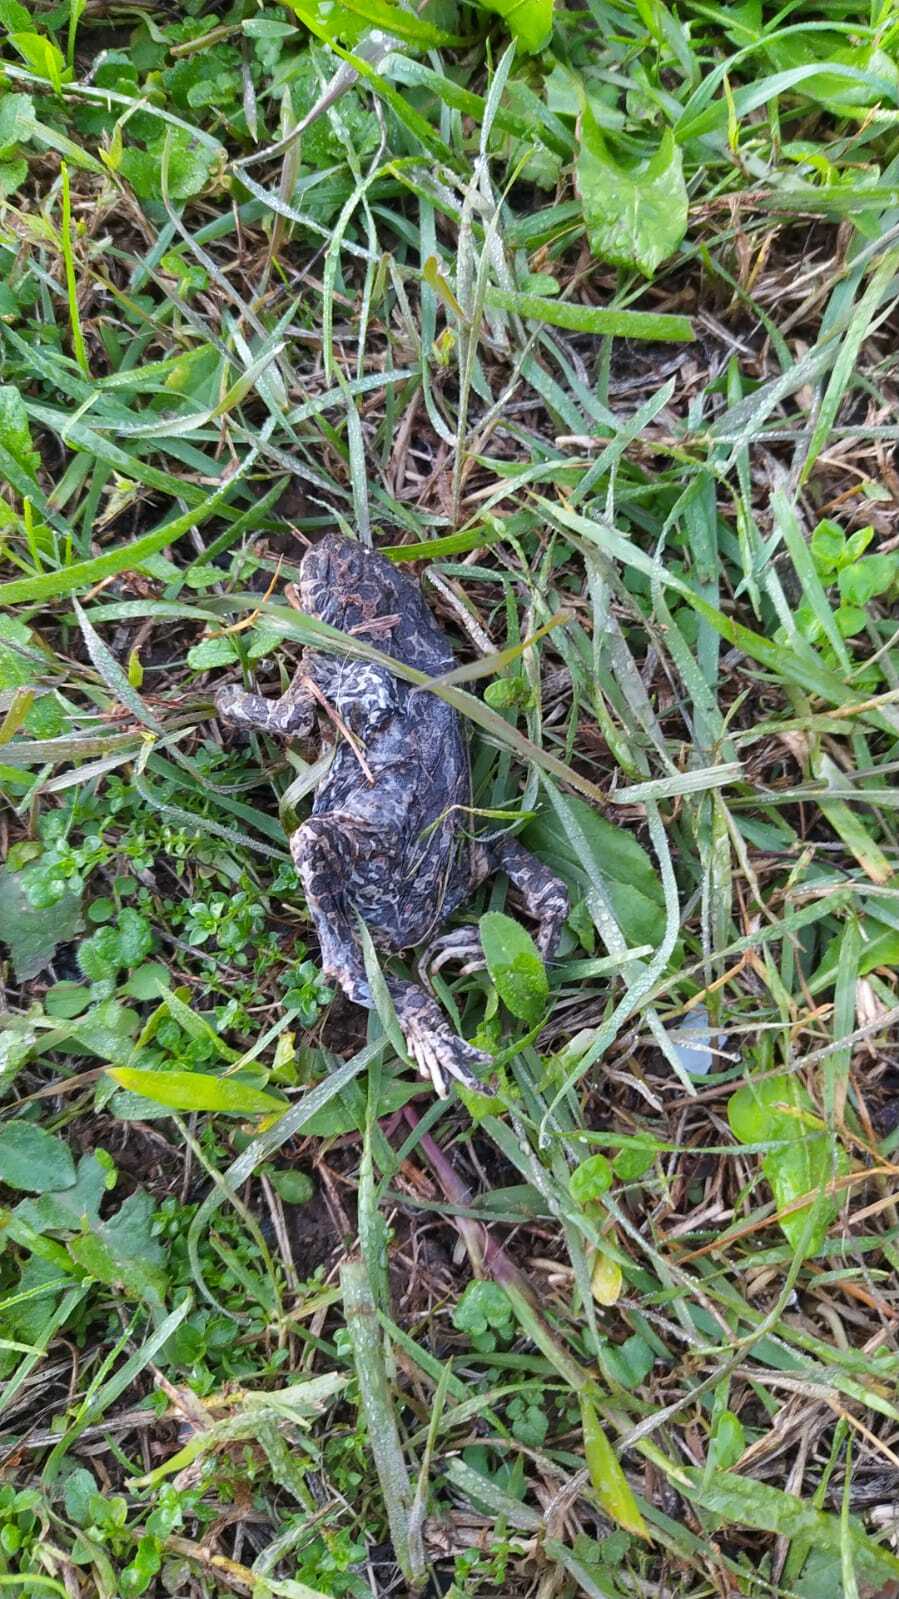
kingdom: Animalia
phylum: Chordata
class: Amphibia
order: Anura
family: Bufonidae
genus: Bufotes
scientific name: Bufotes viridis
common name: European green toad
